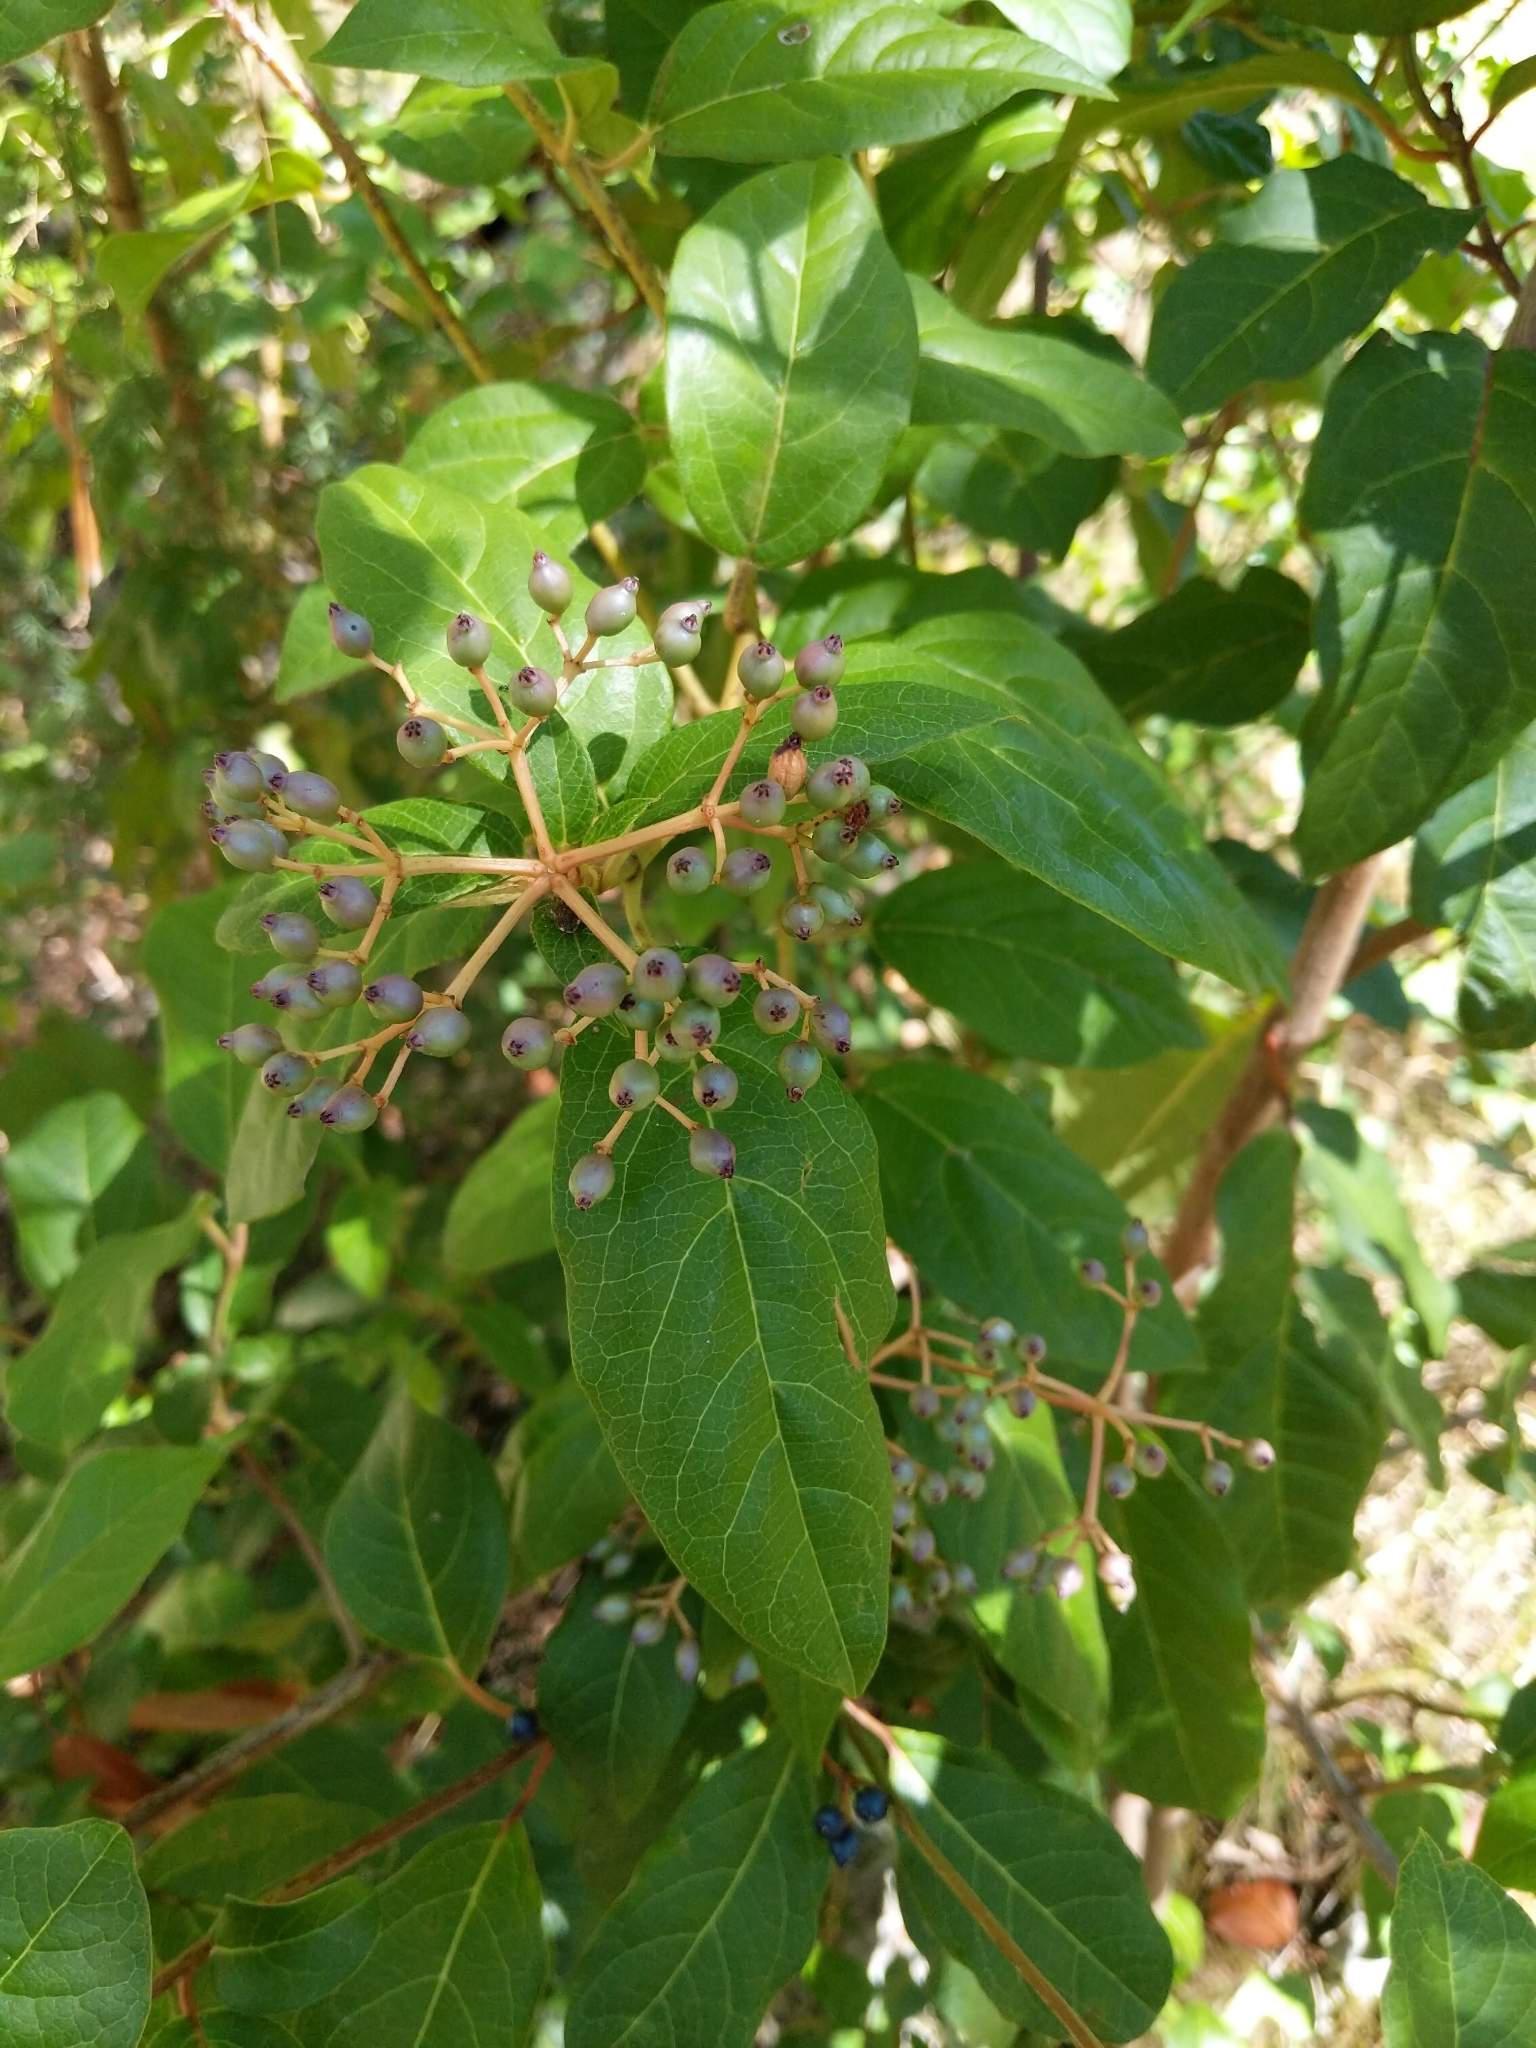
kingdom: Plantae
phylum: Tracheophyta
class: Magnoliopsida
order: Dipsacales
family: Viburnaceae
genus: Viburnum
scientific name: Viburnum tinus
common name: Laurustinus
